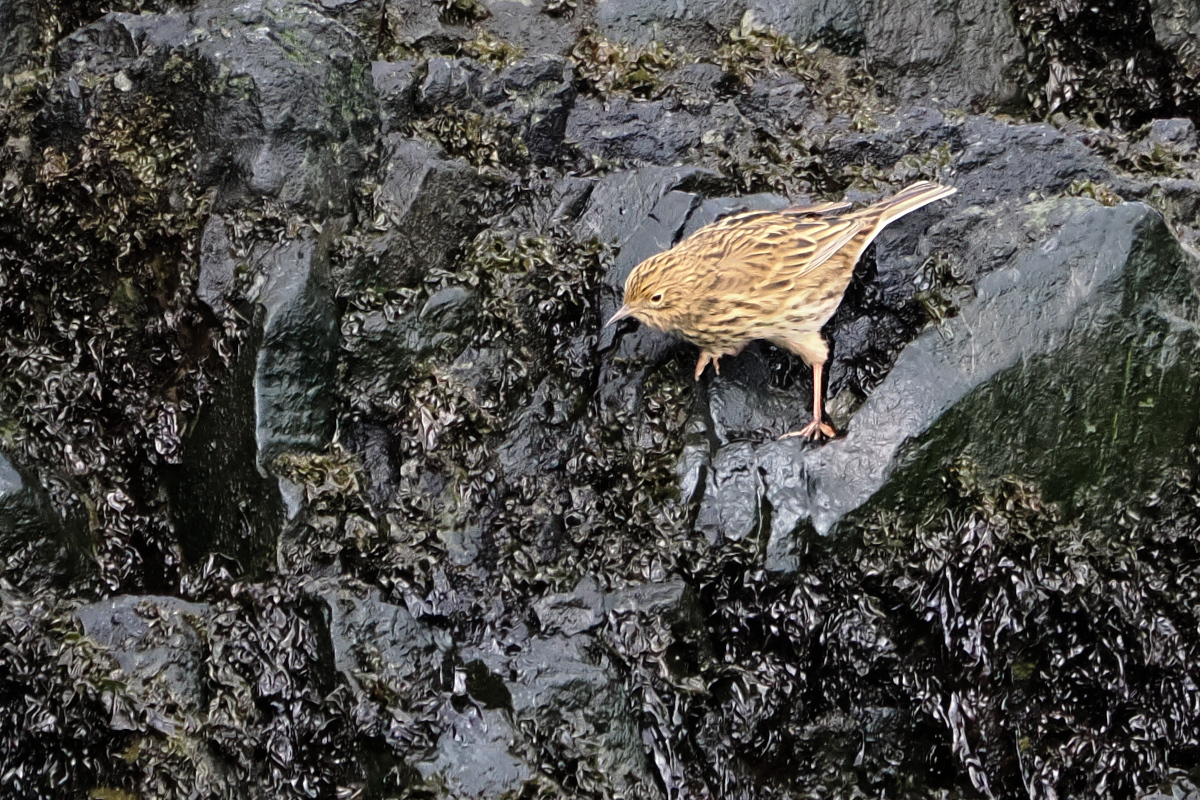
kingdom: Animalia
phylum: Chordata
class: Aves
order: Passeriformes
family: Motacillidae
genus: Anthus
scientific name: Anthus antarcticus
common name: South georgia pipit
